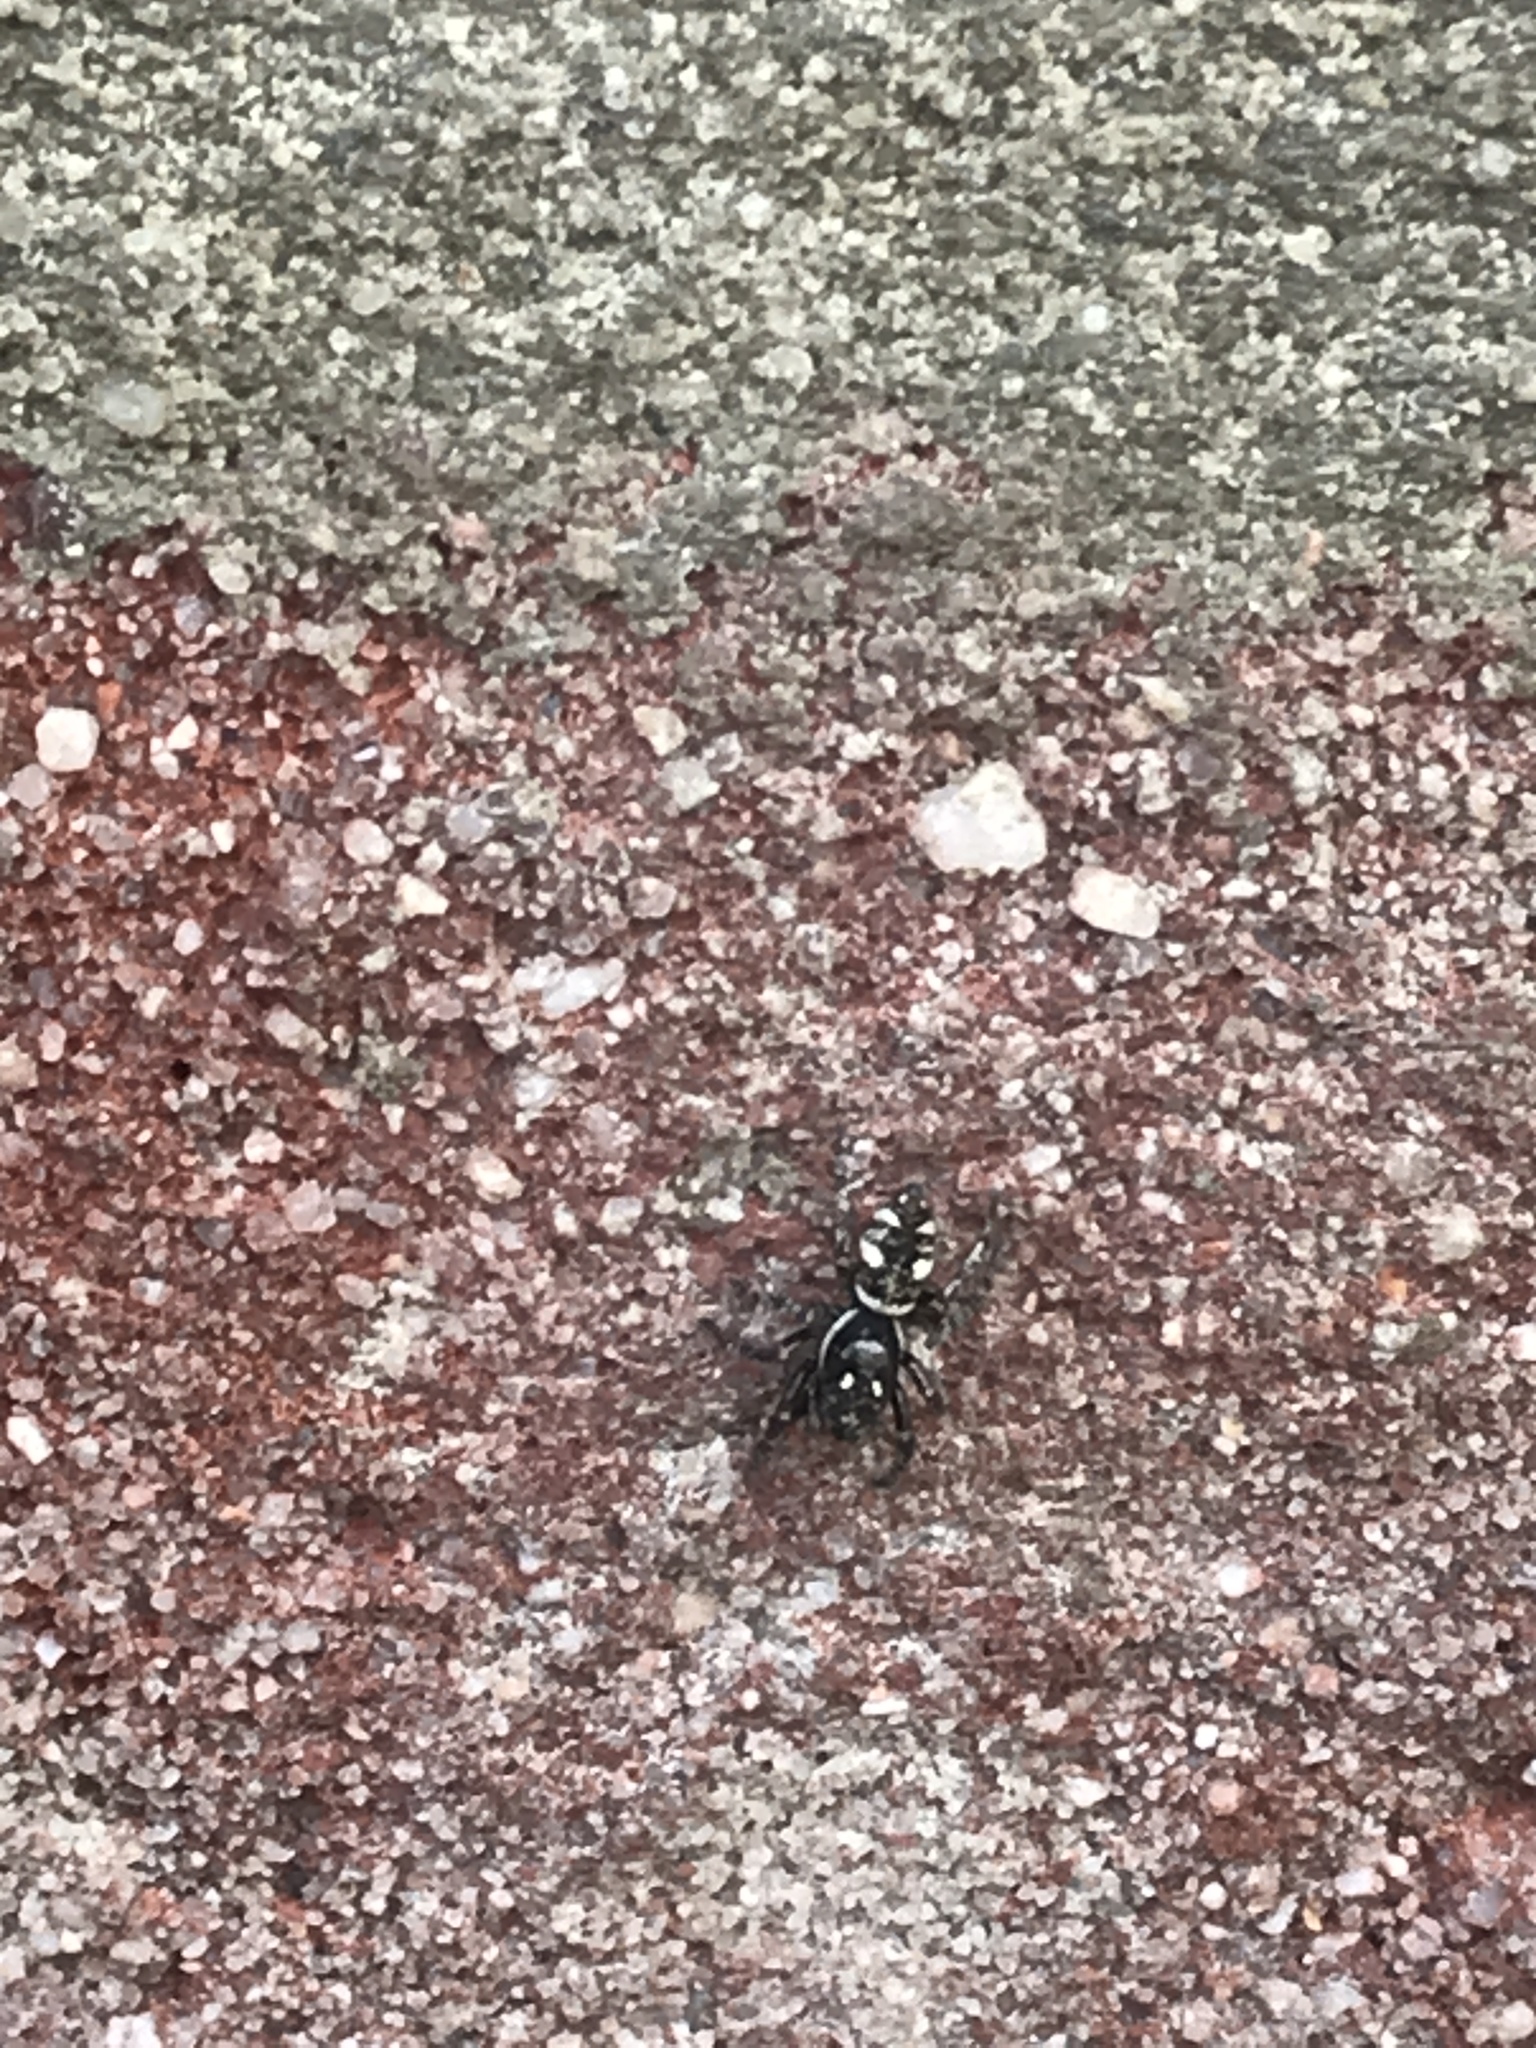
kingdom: Animalia
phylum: Arthropoda
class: Arachnida
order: Araneae
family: Salticidae
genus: Salticus
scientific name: Salticus scenicus
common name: Zebra jumper
